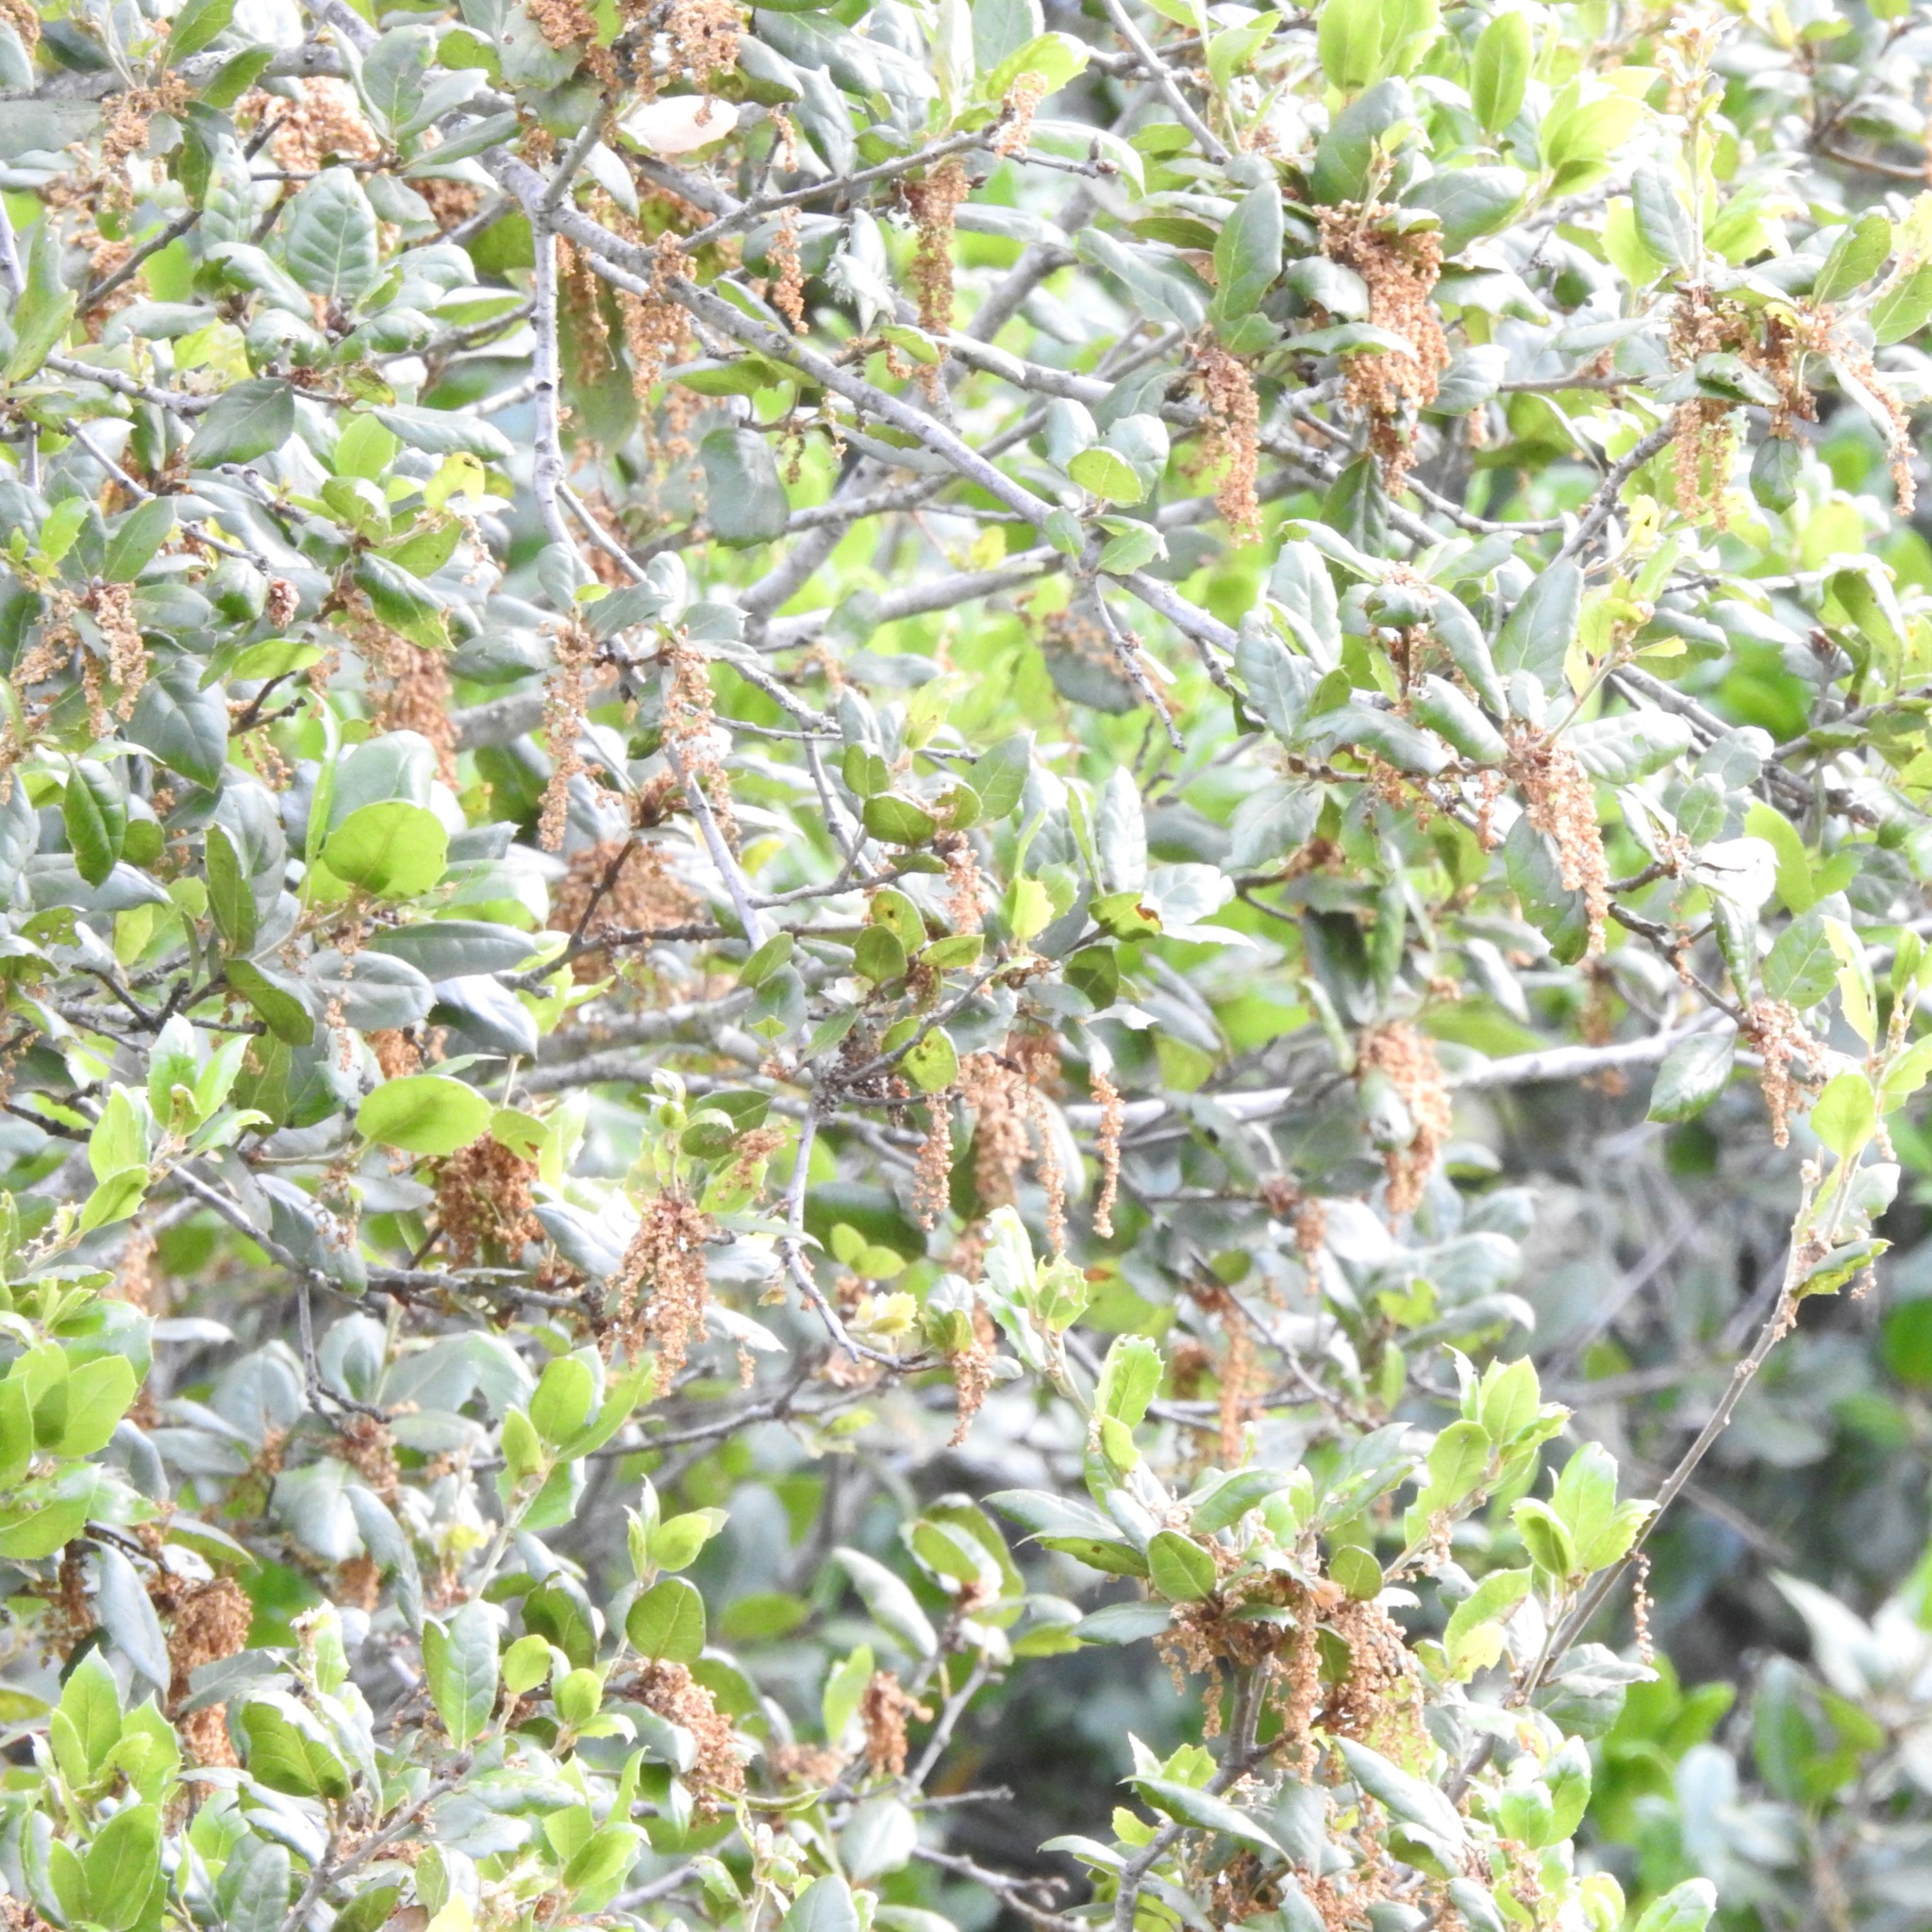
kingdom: Plantae
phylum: Tracheophyta
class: Magnoliopsida
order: Fagales
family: Fagaceae
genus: Quercus
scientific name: Quercus agrifolia
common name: California live oak
